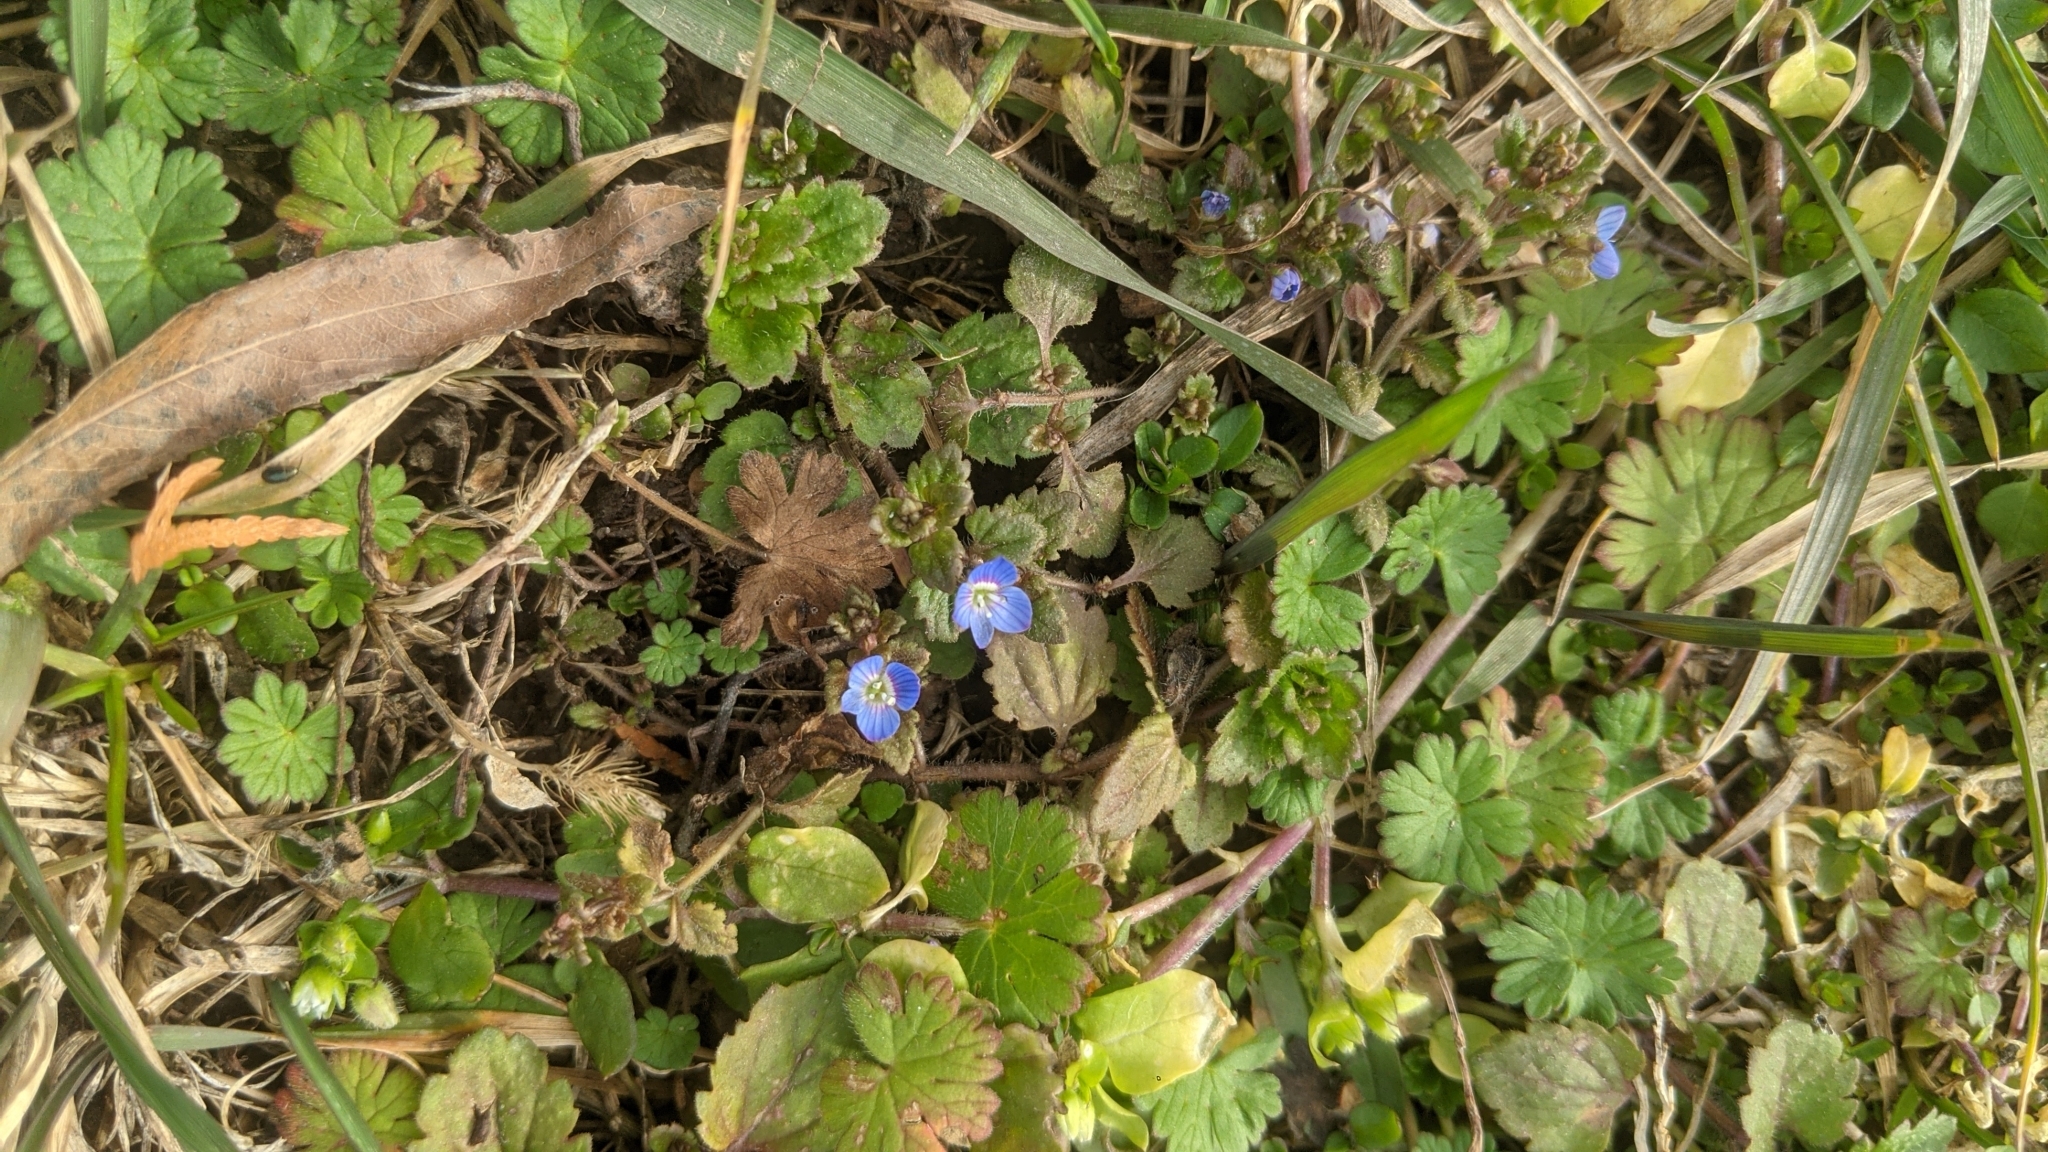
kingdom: Plantae
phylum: Tracheophyta
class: Magnoliopsida
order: Lamiales
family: Plantaginaceae
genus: Veronica
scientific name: Veronica persica
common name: Common field-speedwell
